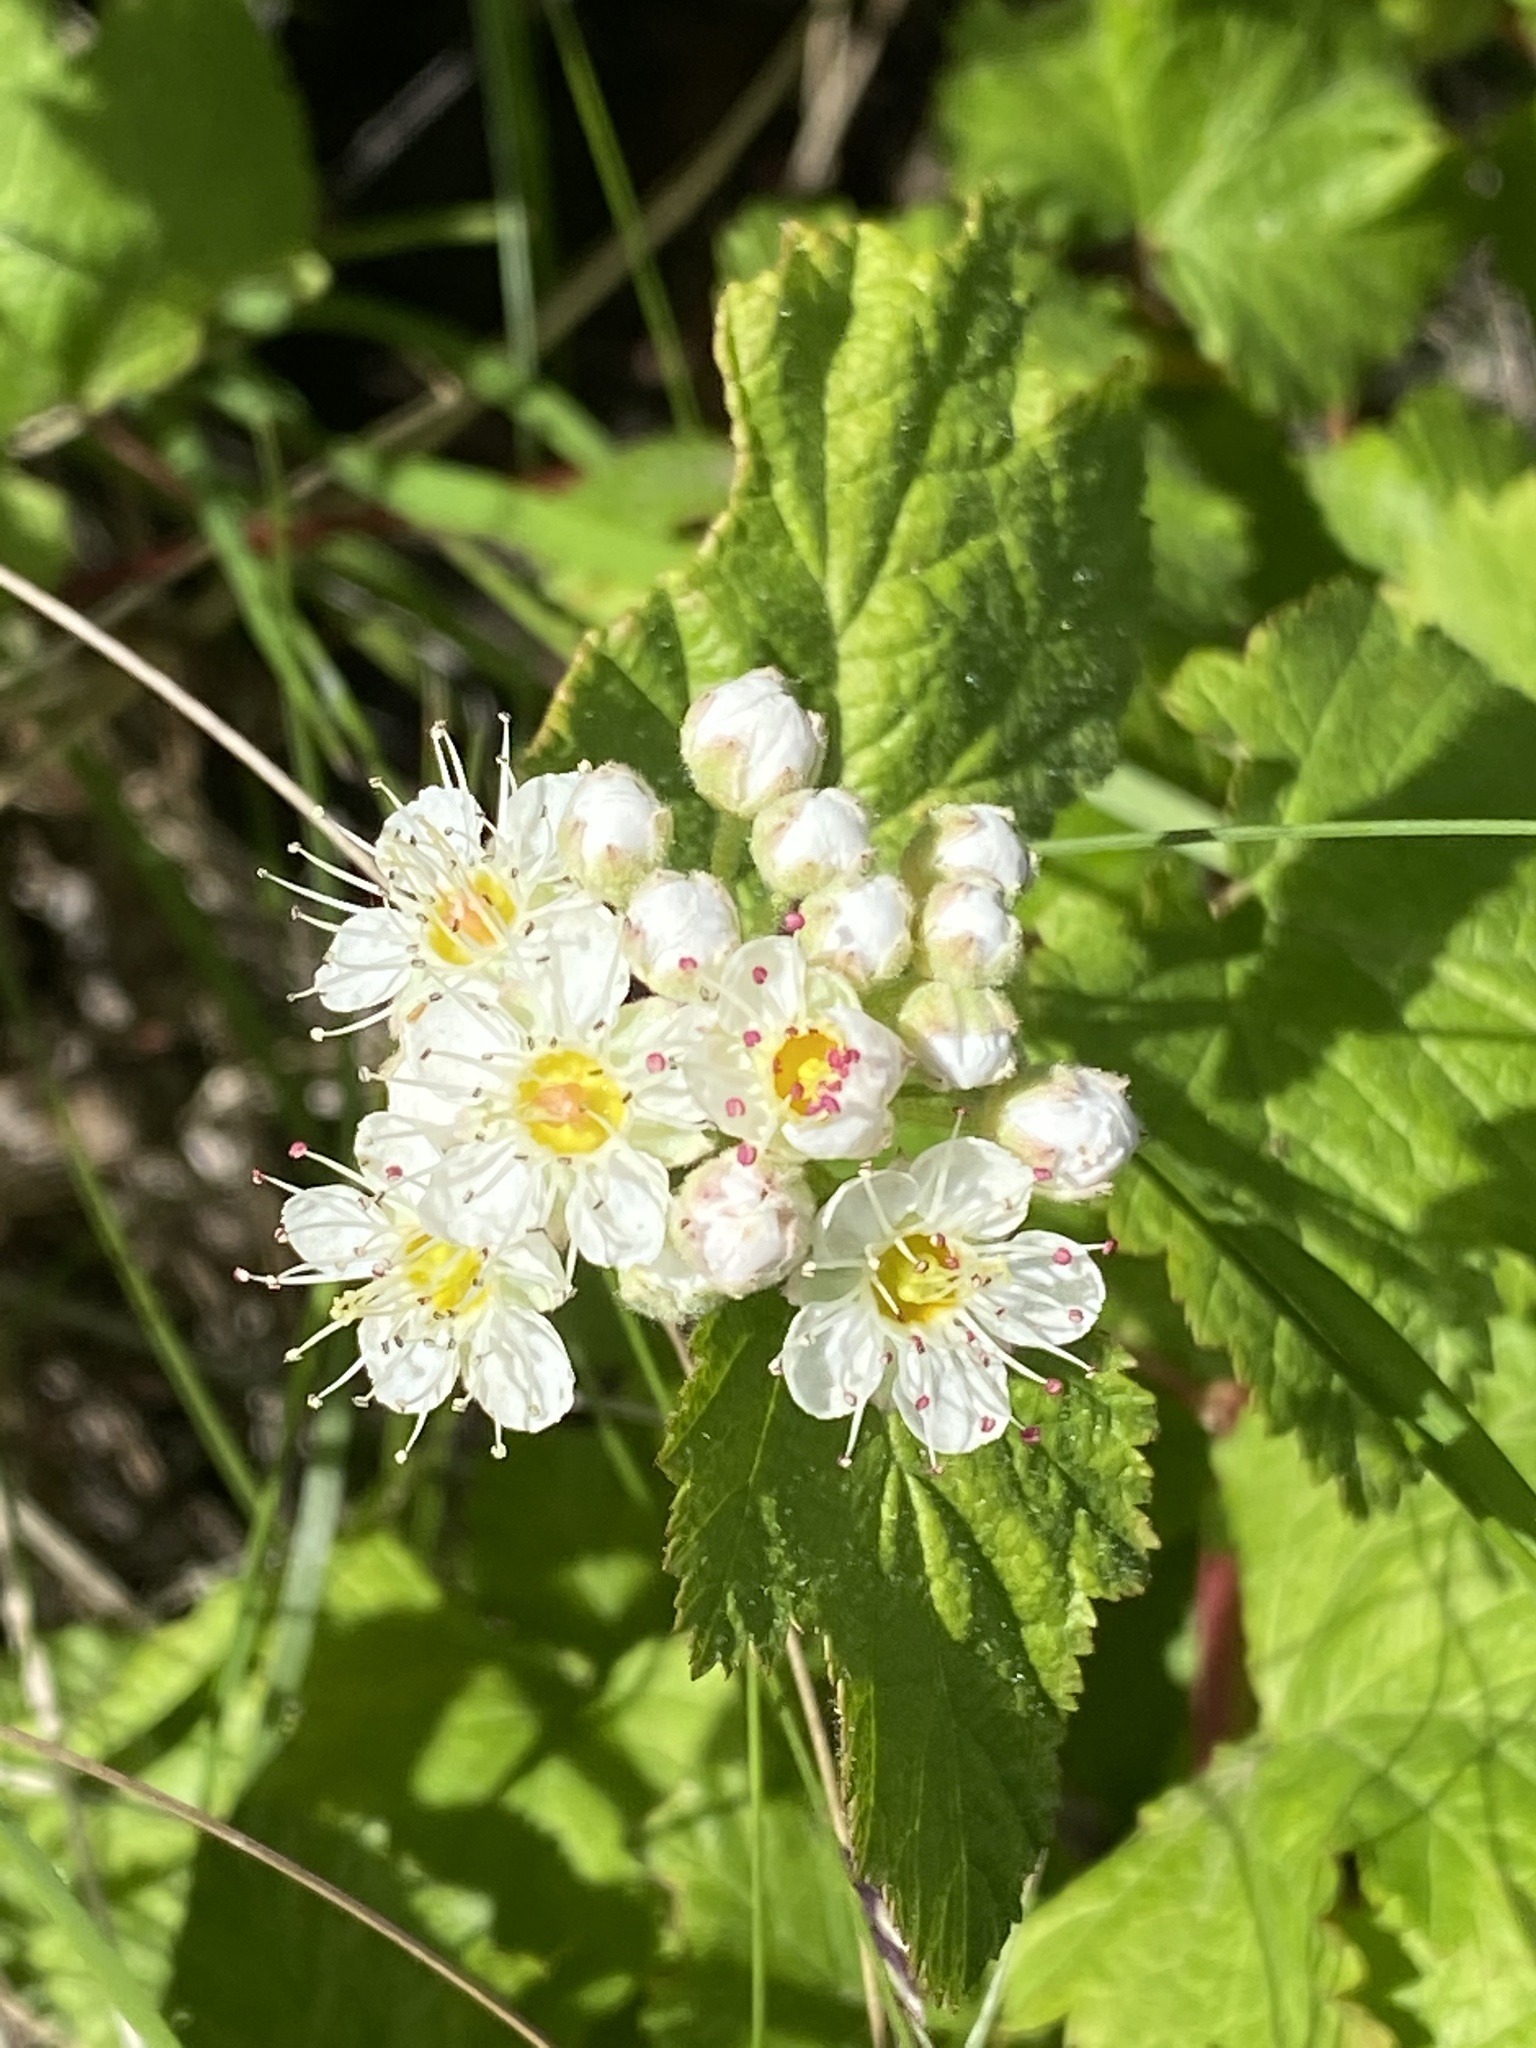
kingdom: Plantae
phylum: Tracheophyta
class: Magnoliopsida
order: Rosales
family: Rosaceae
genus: Physocarpus
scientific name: Physocarpus capitatus
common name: Pacific ninebark
